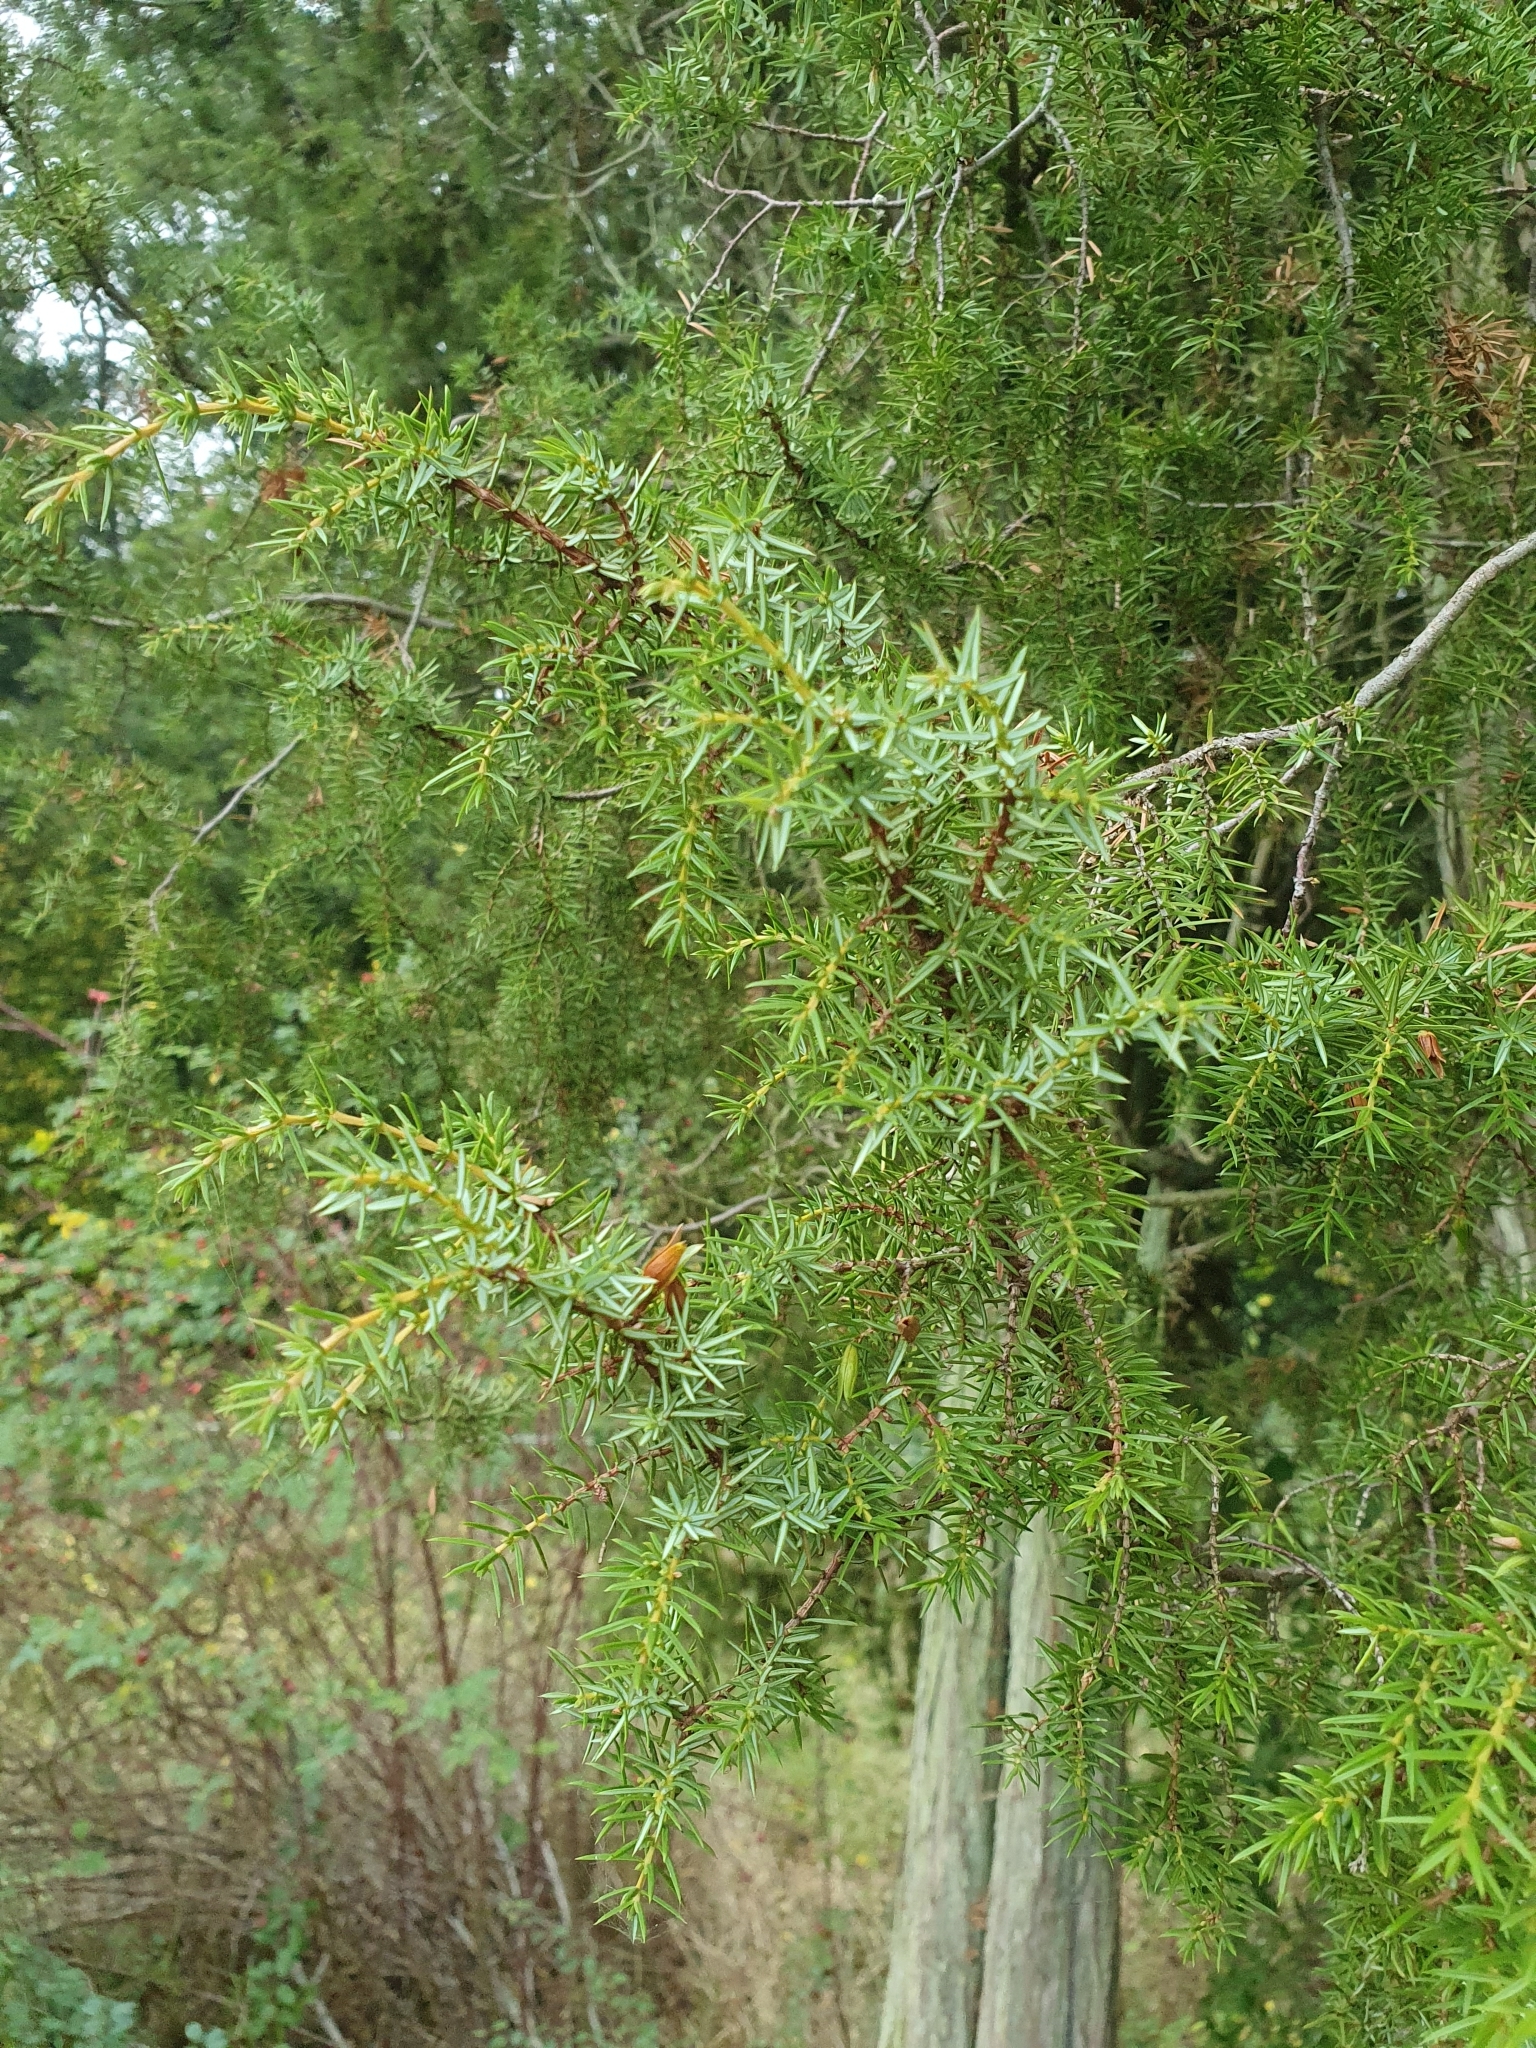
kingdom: Plantae
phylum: Tracheophyta
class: Pinopsida
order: Pinales
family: Cupressaceae
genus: Juniperus
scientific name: Juniperus communis
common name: Common juniper
